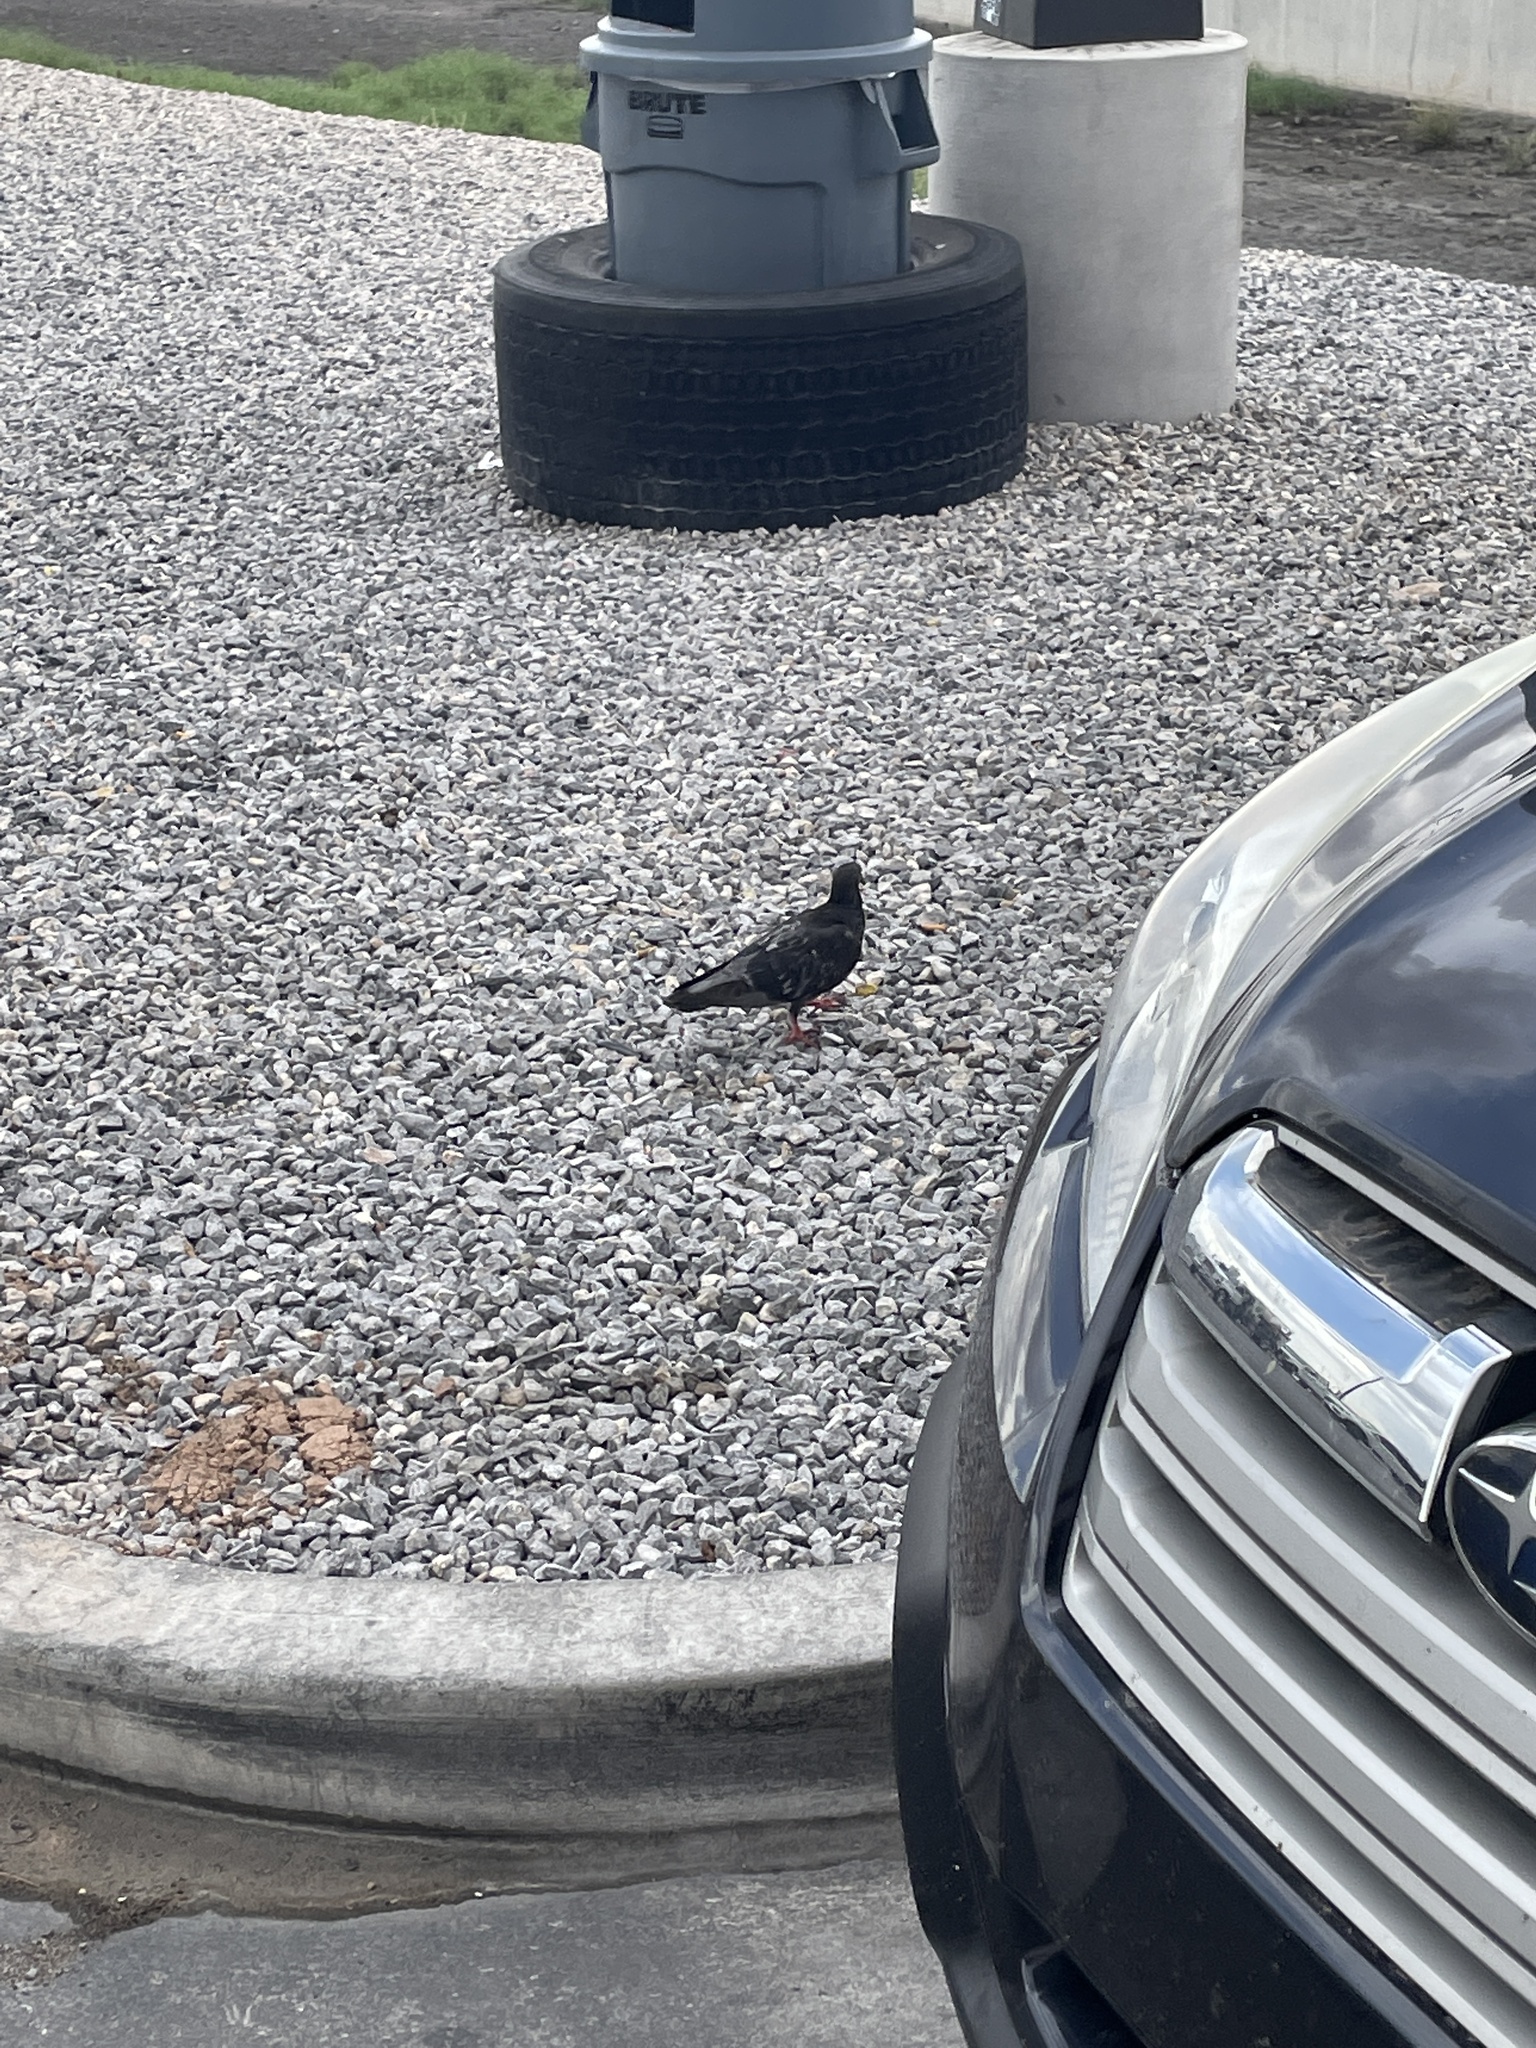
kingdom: Animalia
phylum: Chordata
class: Aves
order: Columbiformes
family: Columbidae
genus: Columba
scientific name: Columba livia
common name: Rock pigeon
